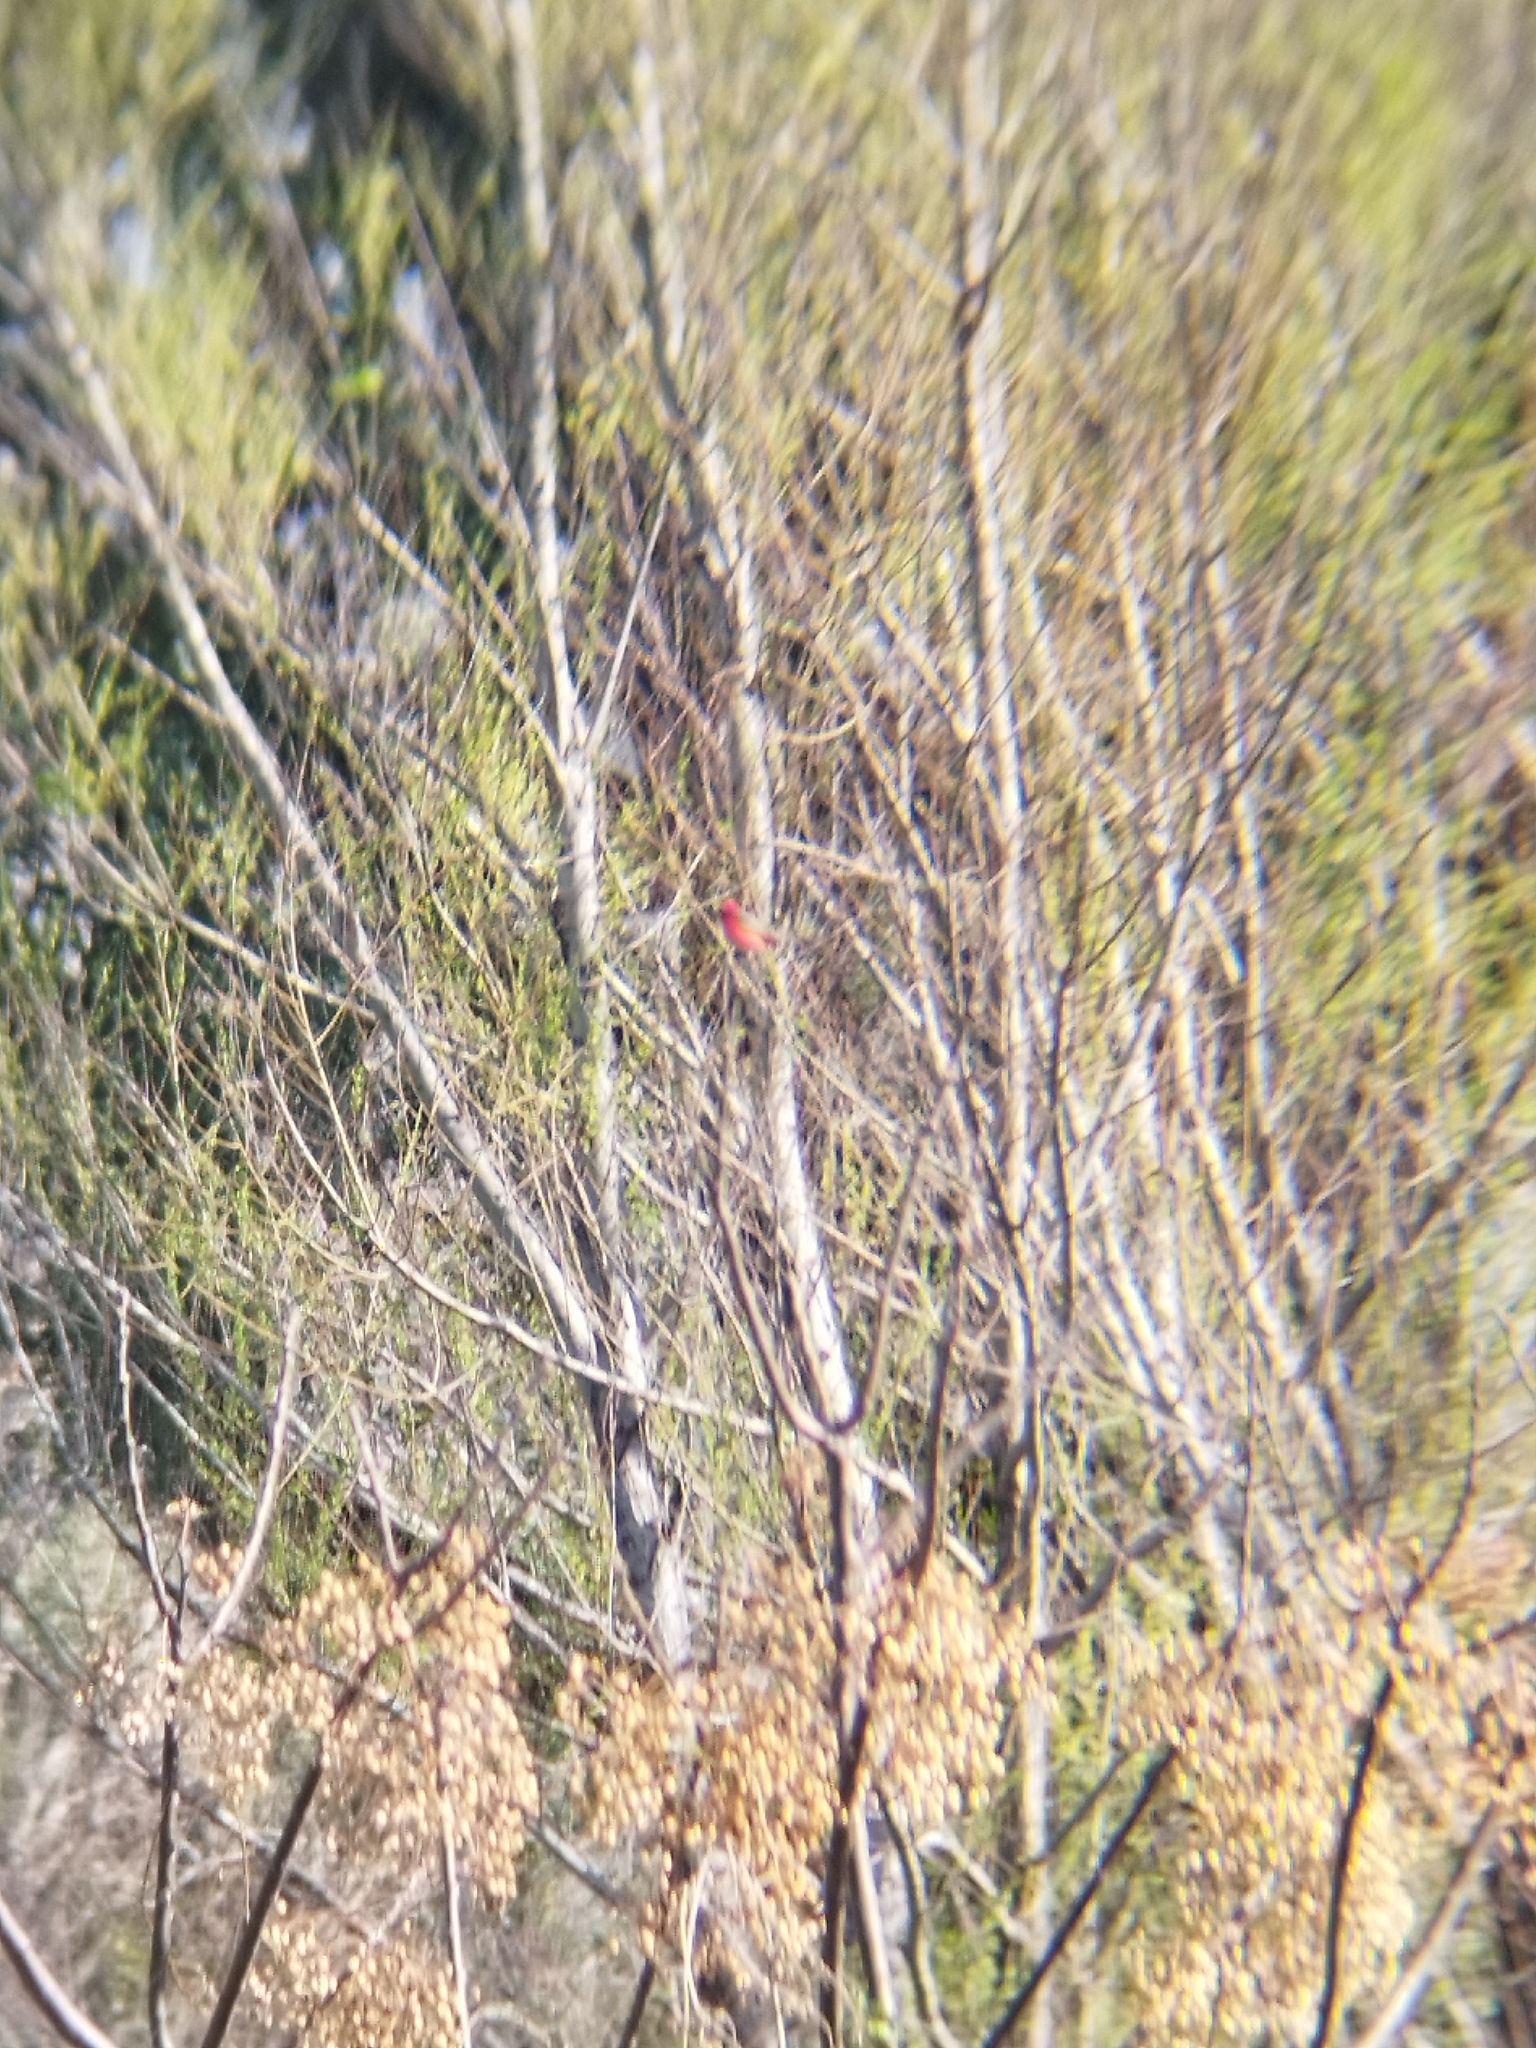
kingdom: Animalia
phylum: Chordata
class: Aves
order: Passeriformes
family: Tyrannidae
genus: Pyrocephalus
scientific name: Pyrocephalus rubinus
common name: Vermilion flycatcher
